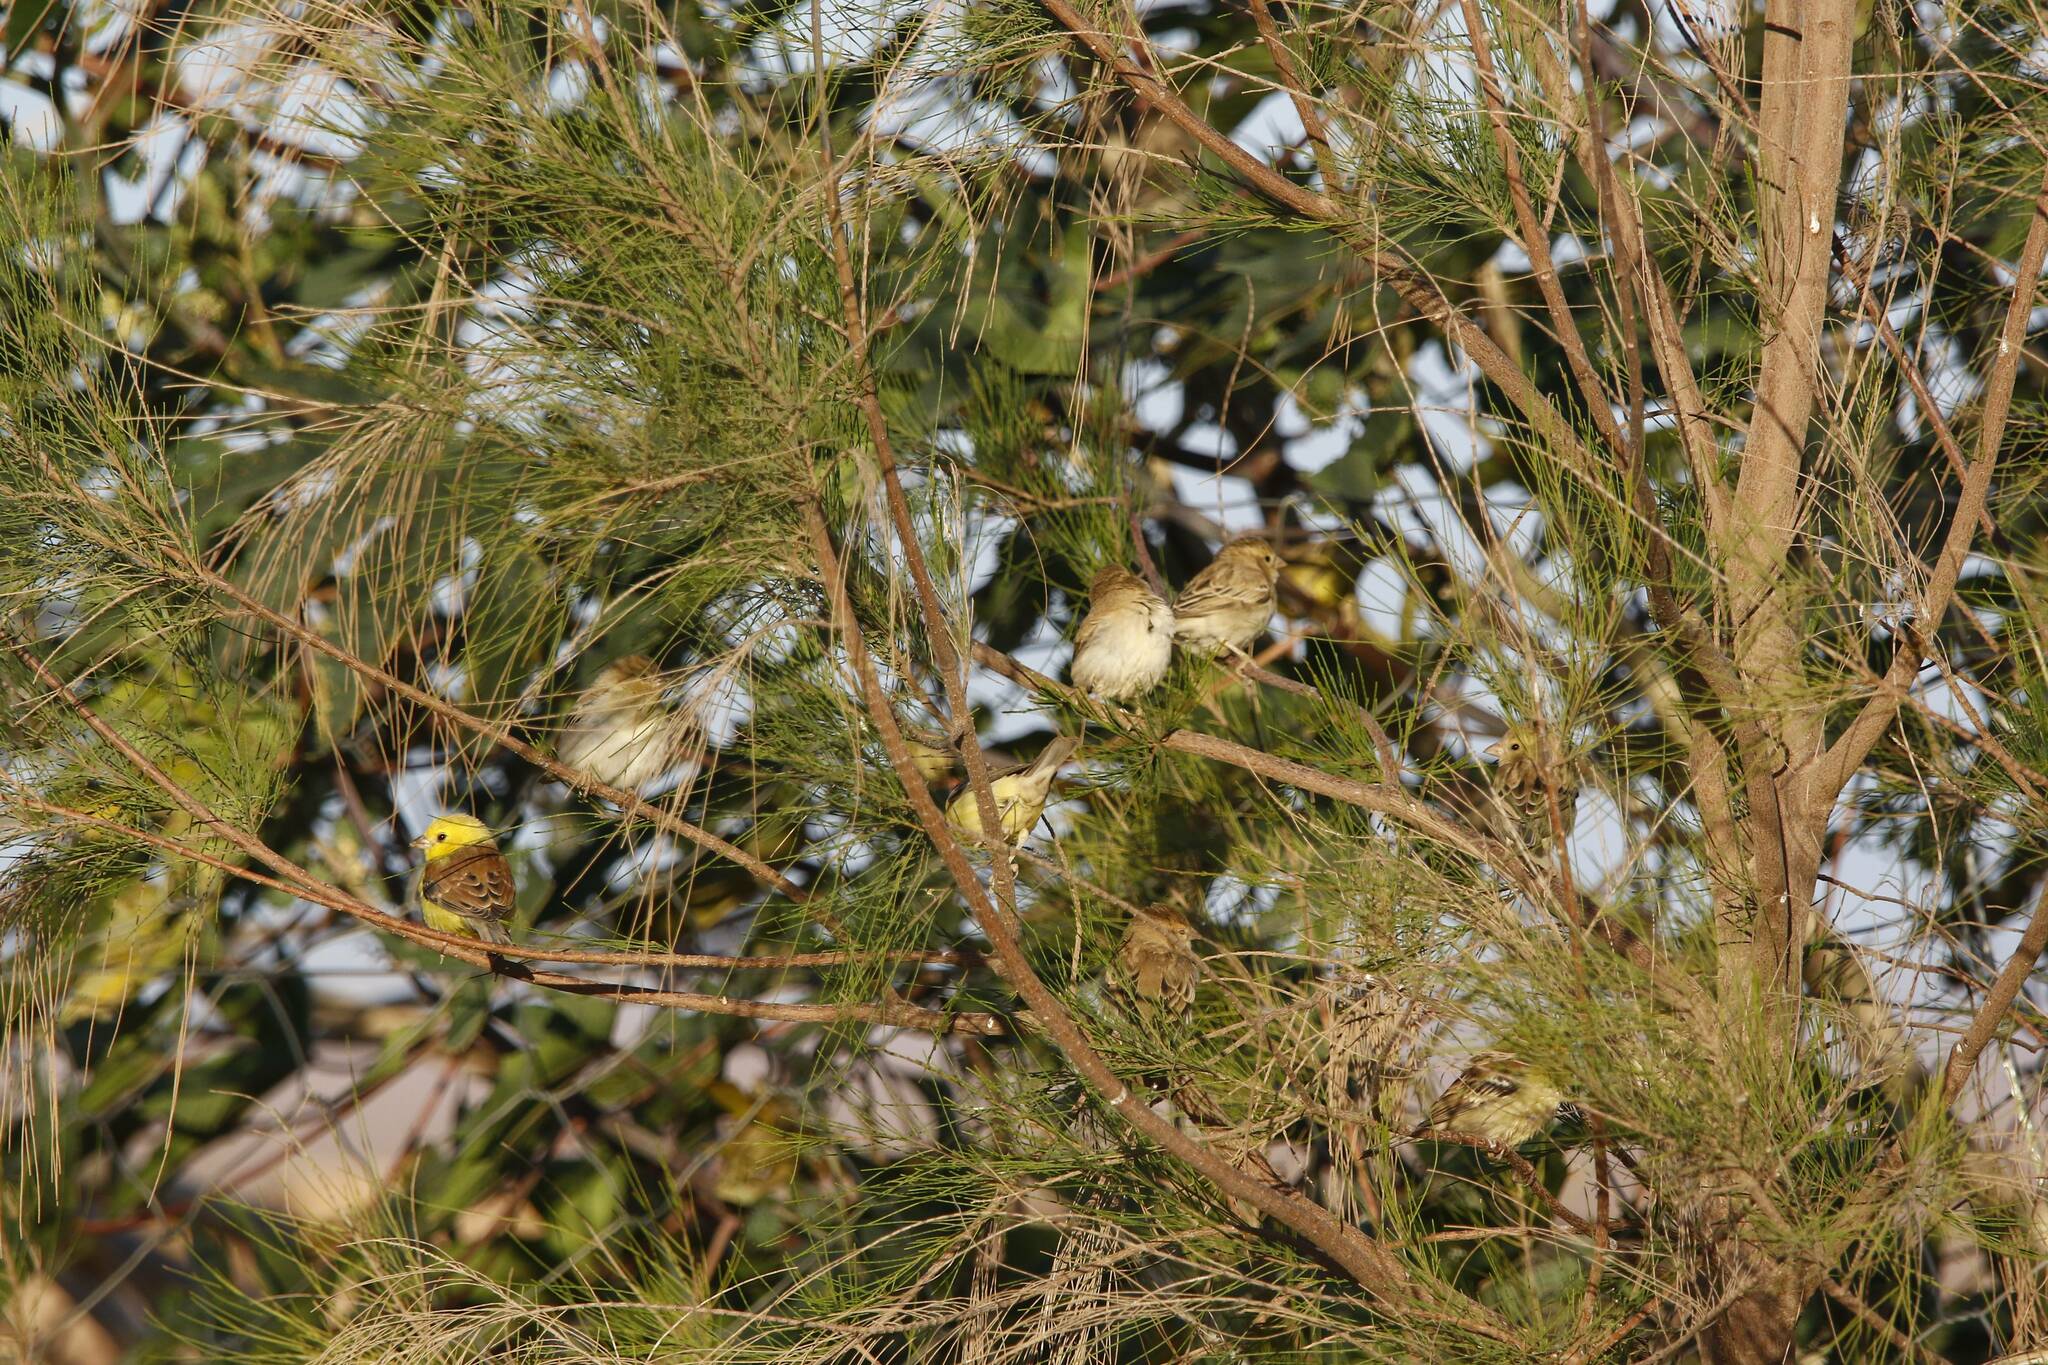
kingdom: Animalia
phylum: Chordata
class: Aves
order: Passeriformes
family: Passeridae
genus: Passer
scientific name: Passer luteus
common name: Sudan golden sparrow
